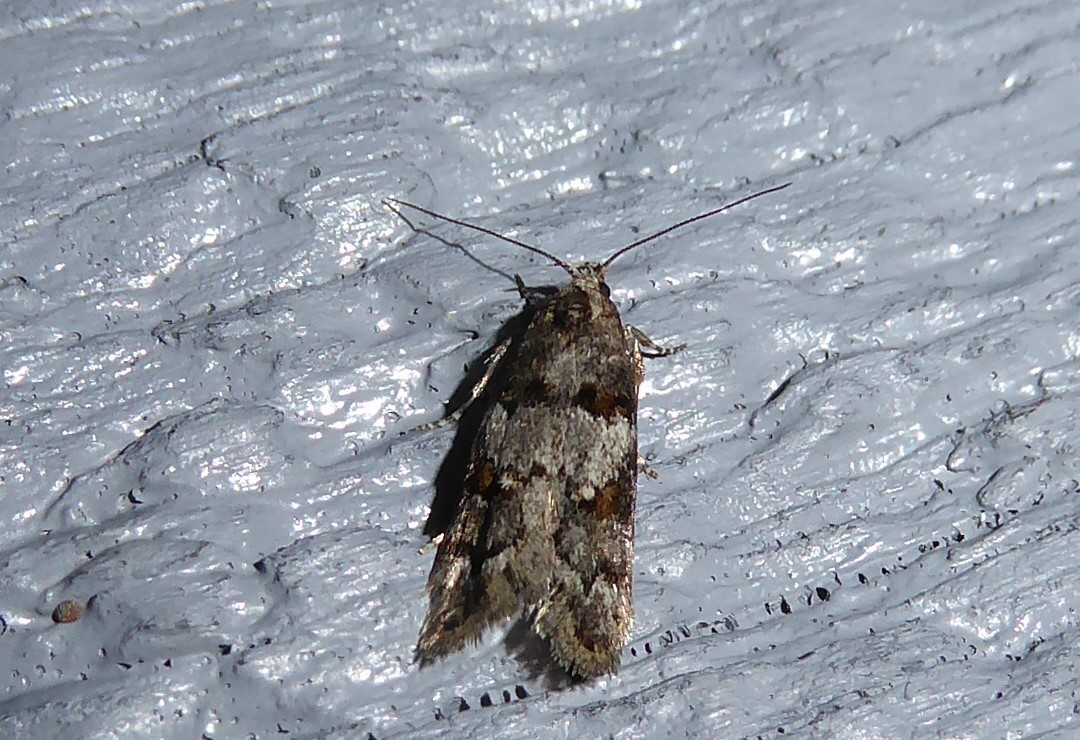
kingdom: Animalia
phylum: Arthropoda
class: Insecta
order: Lepidoptera
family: Oecophoridae
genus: Trachypepla
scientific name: Trachypepla contritella
